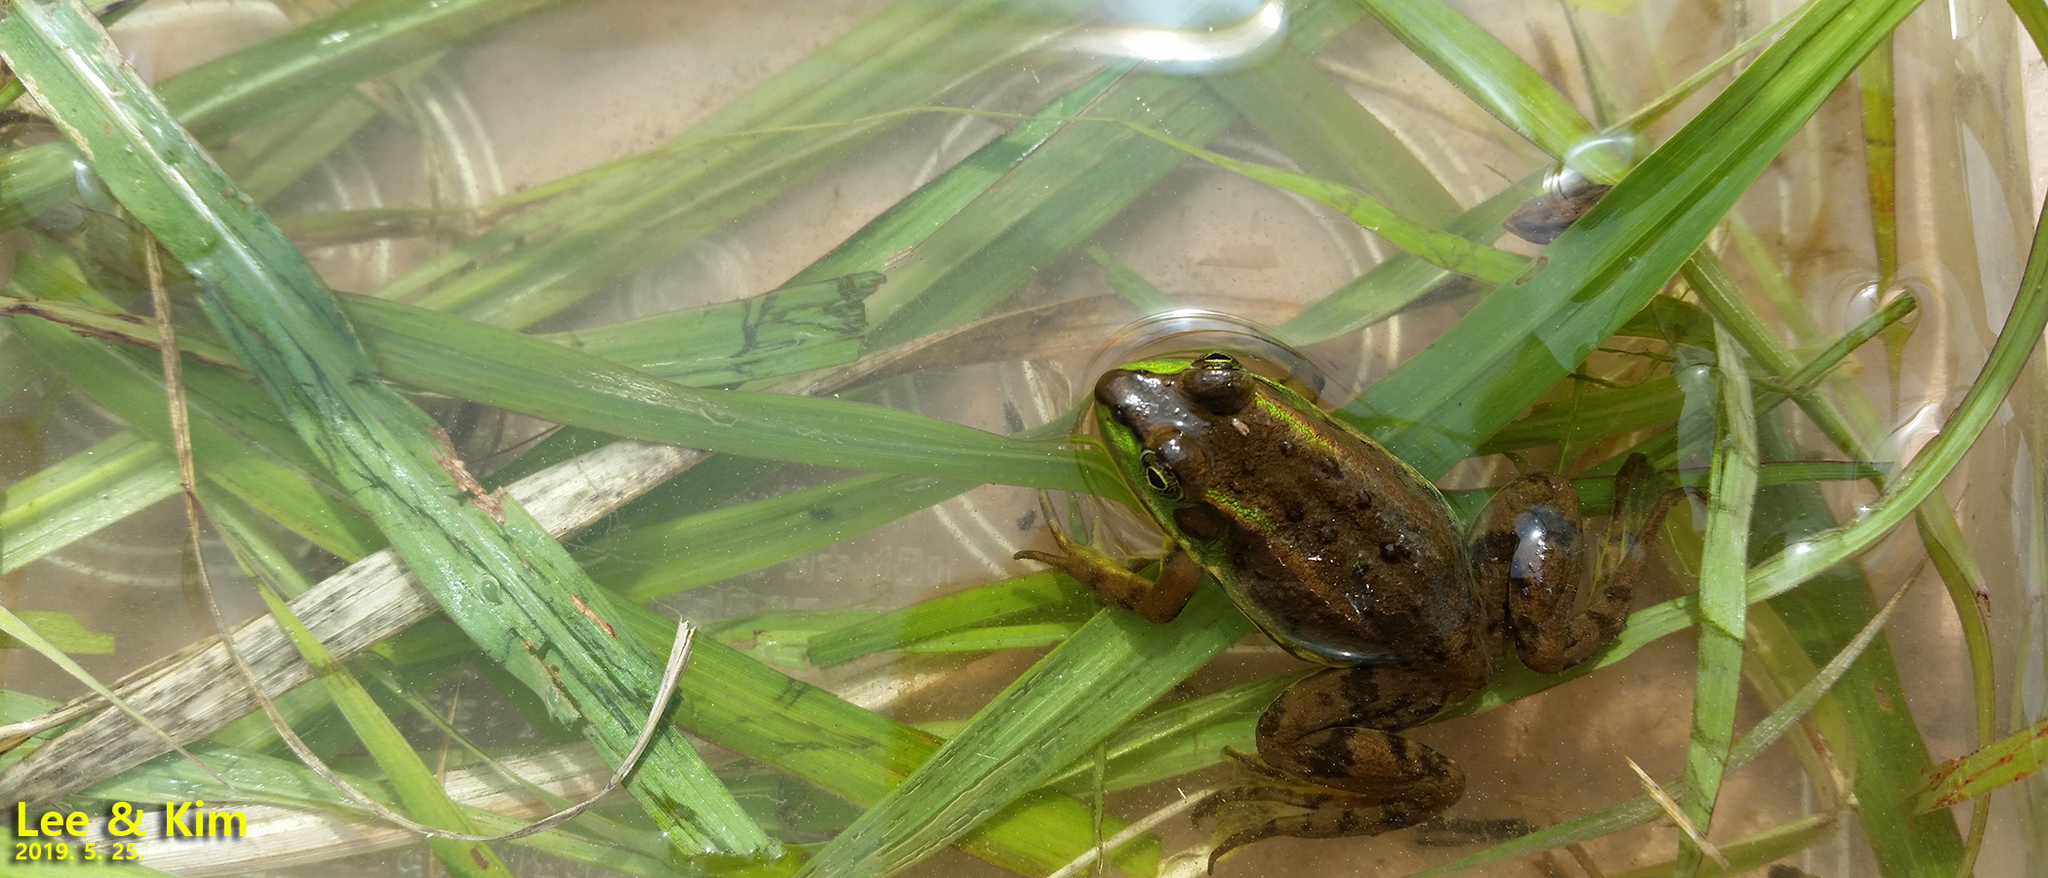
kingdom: Animalia
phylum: Chordata
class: Amphibia
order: Anura
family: Ranidae
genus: Pelophylax
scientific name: Pelophylax chosenicus
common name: Gold-spotted pond frog
